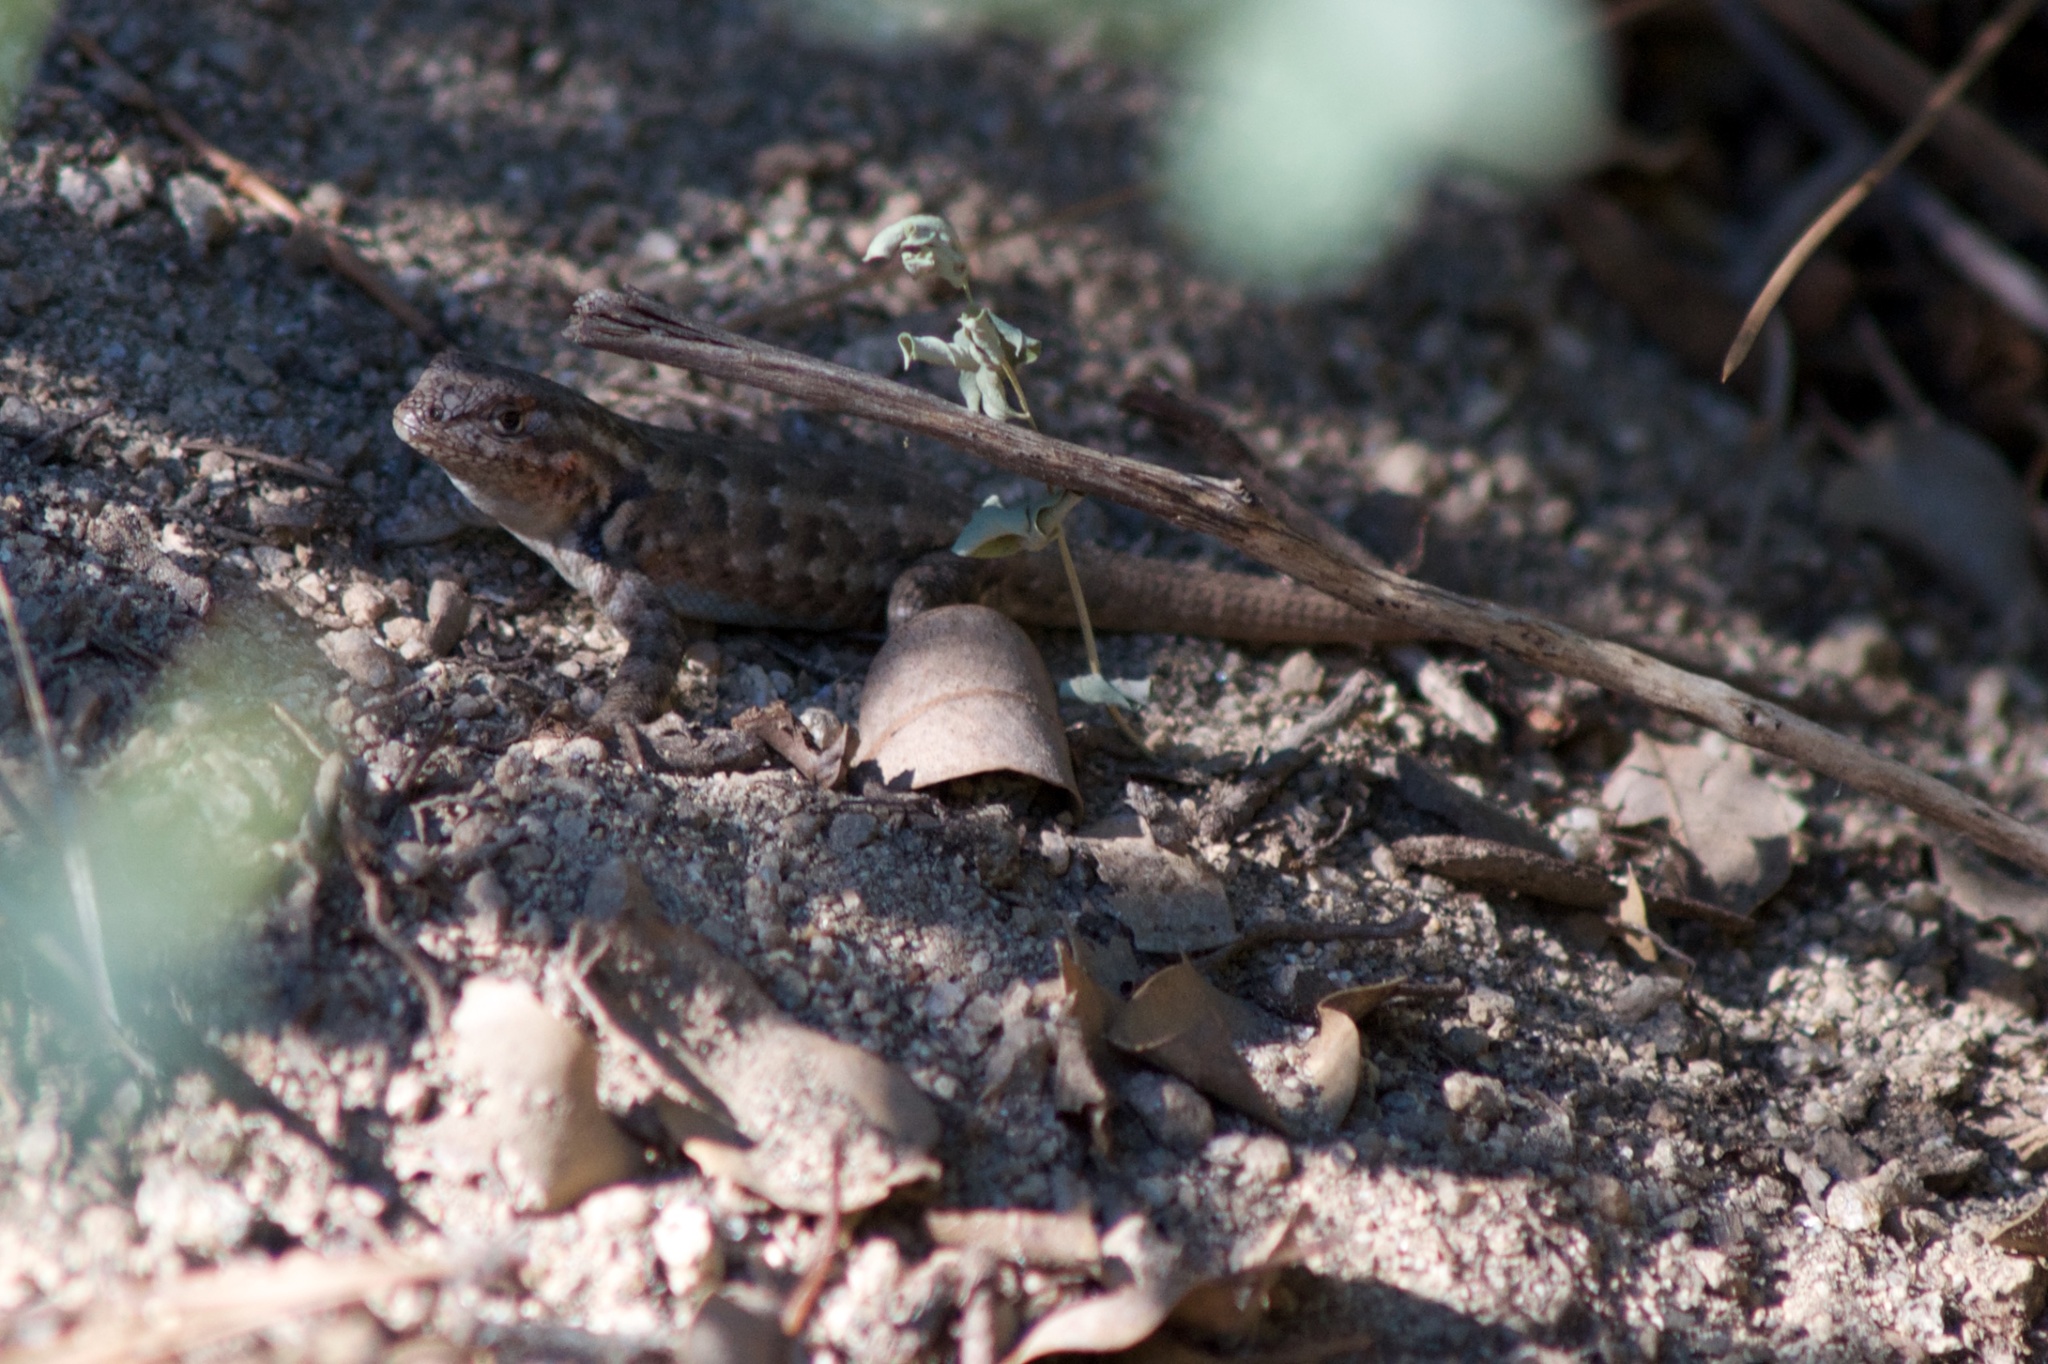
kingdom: Animalia
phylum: Chordata
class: Squamata
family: Phrynosomatidae
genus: Sceloporus
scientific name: Sceloporus graciosus
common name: Sagebrush lizard
